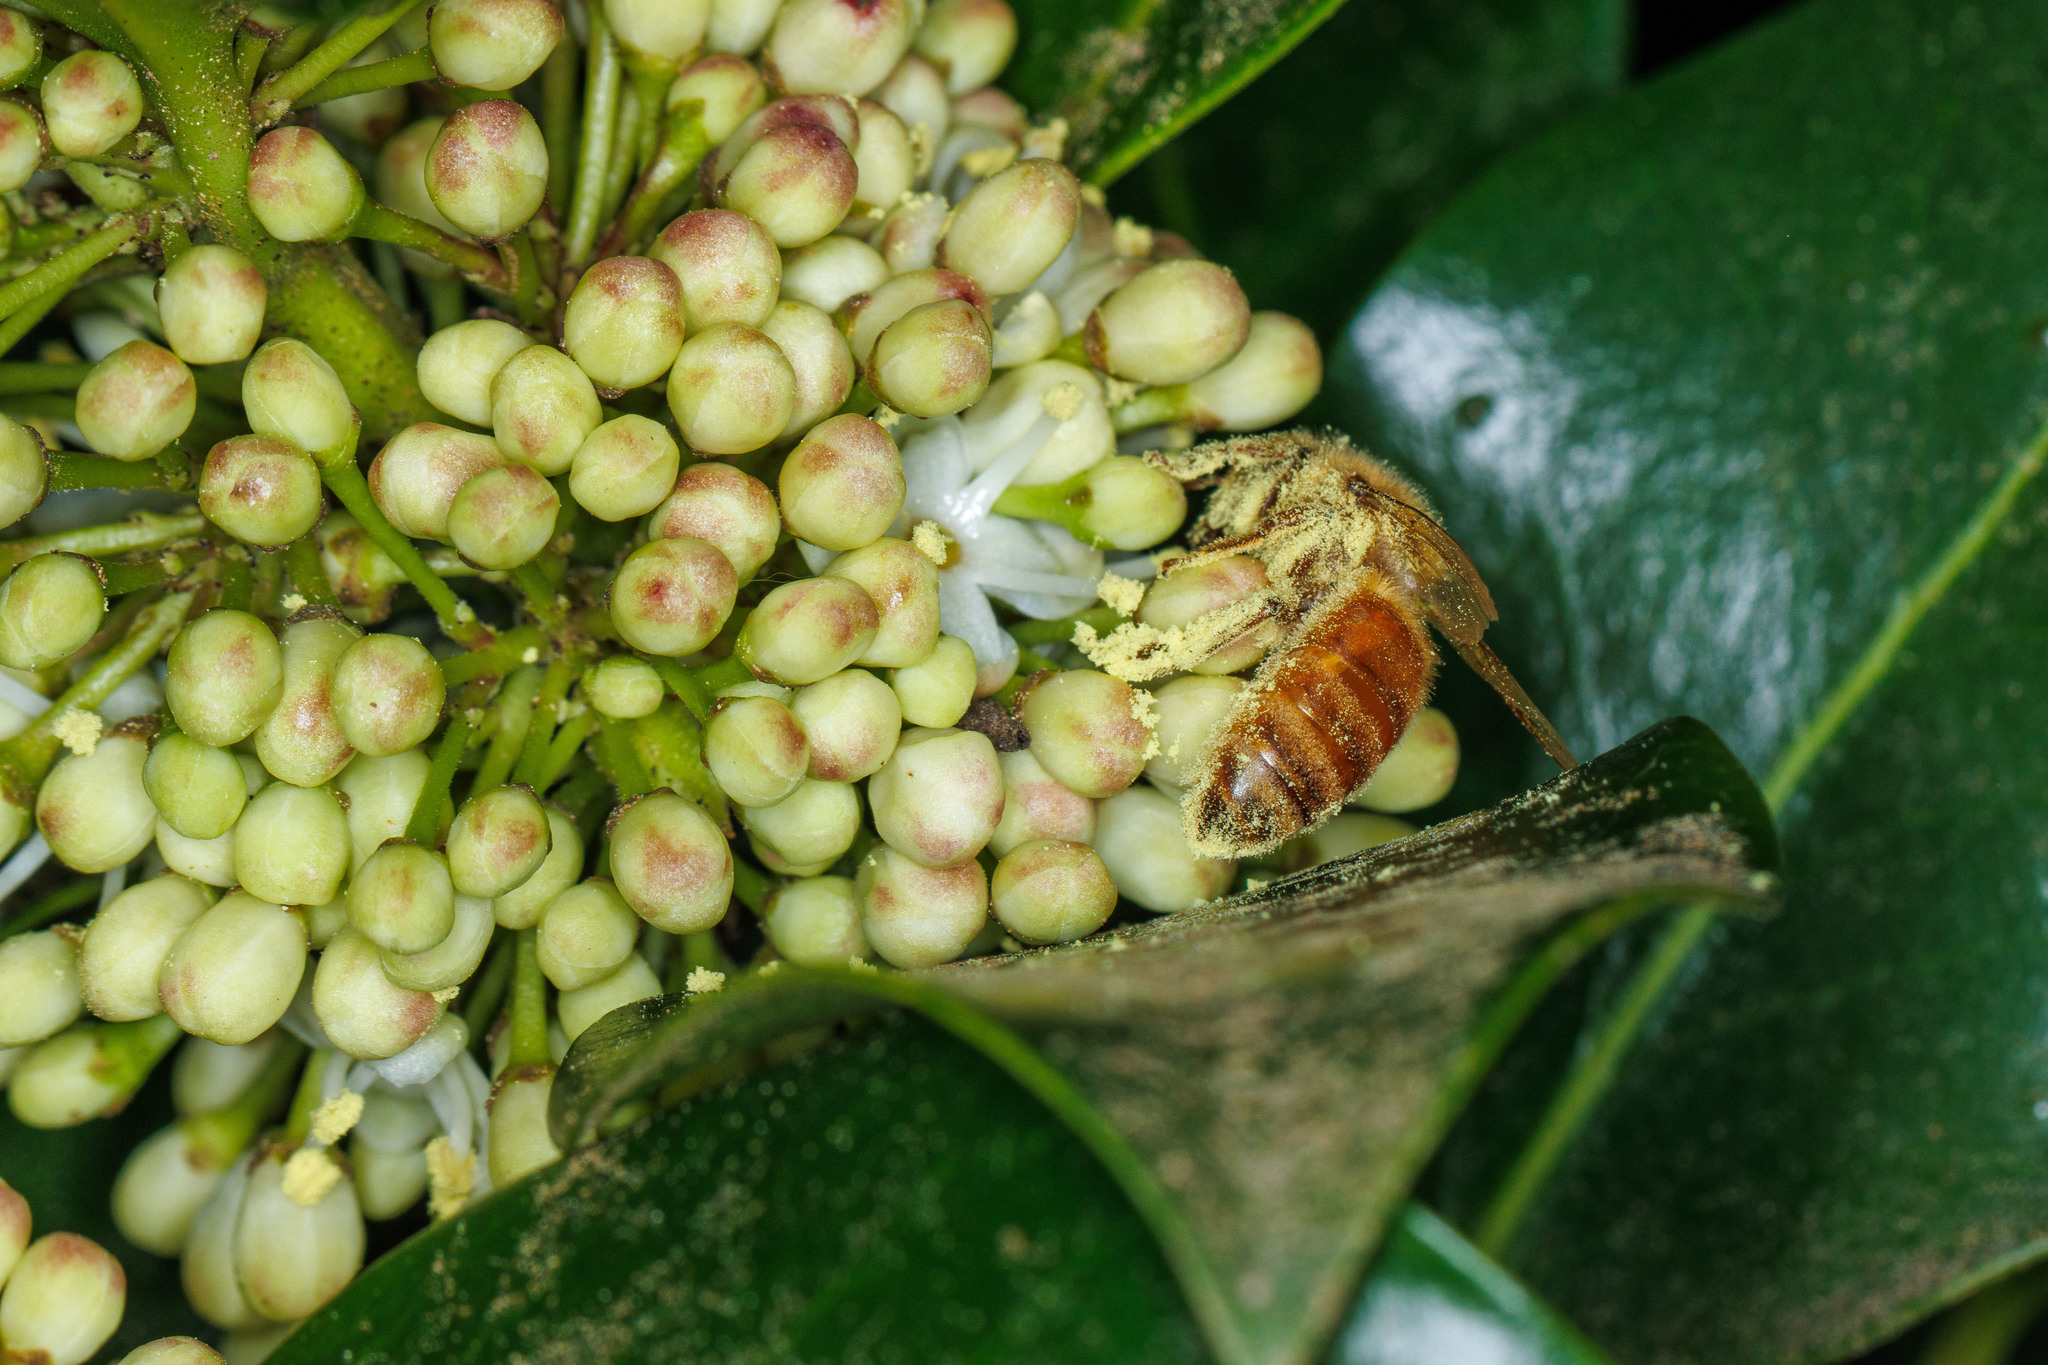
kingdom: Animalia
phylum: Arthropoda
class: Insecta
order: Hymenoptera
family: Apidae
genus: Apis
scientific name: Apis mellifera
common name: Honey bee
